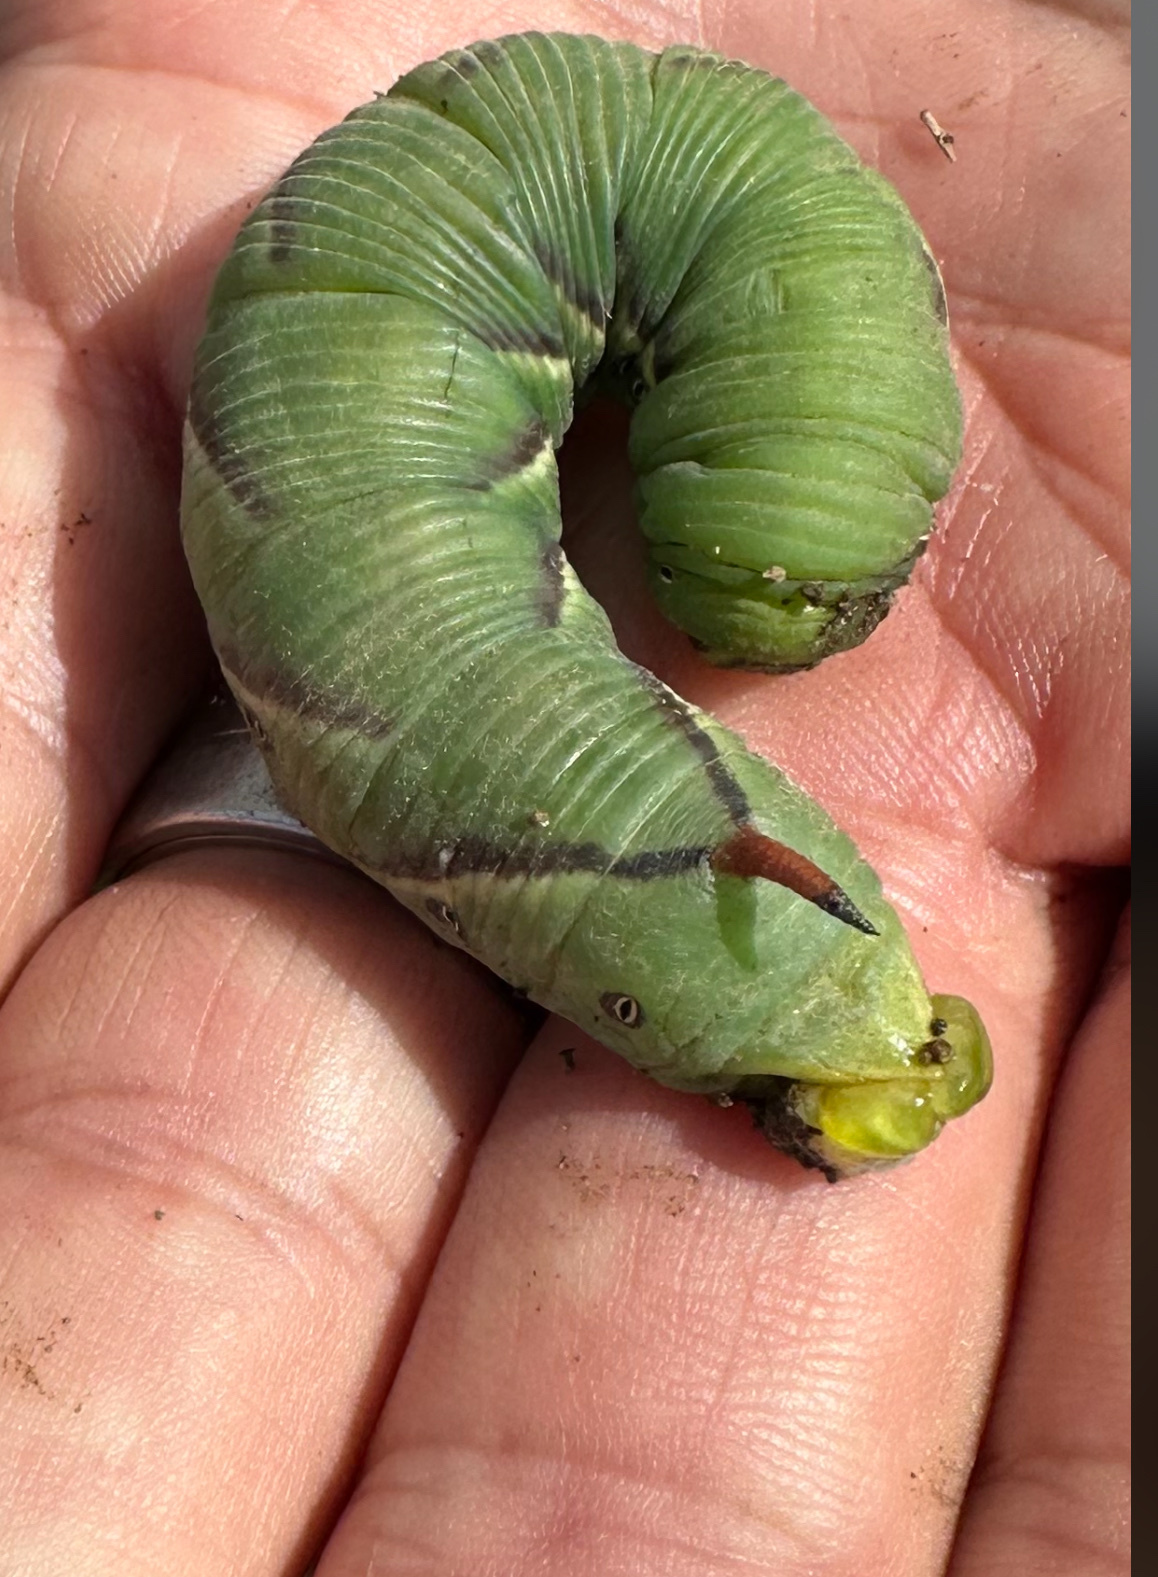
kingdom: Animalia
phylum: Arthropoda
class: Insecta
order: Lepidoptera
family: Sphingidae
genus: Agrius
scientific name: Agrius convolvuli
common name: Convolvulus hawkmoth
